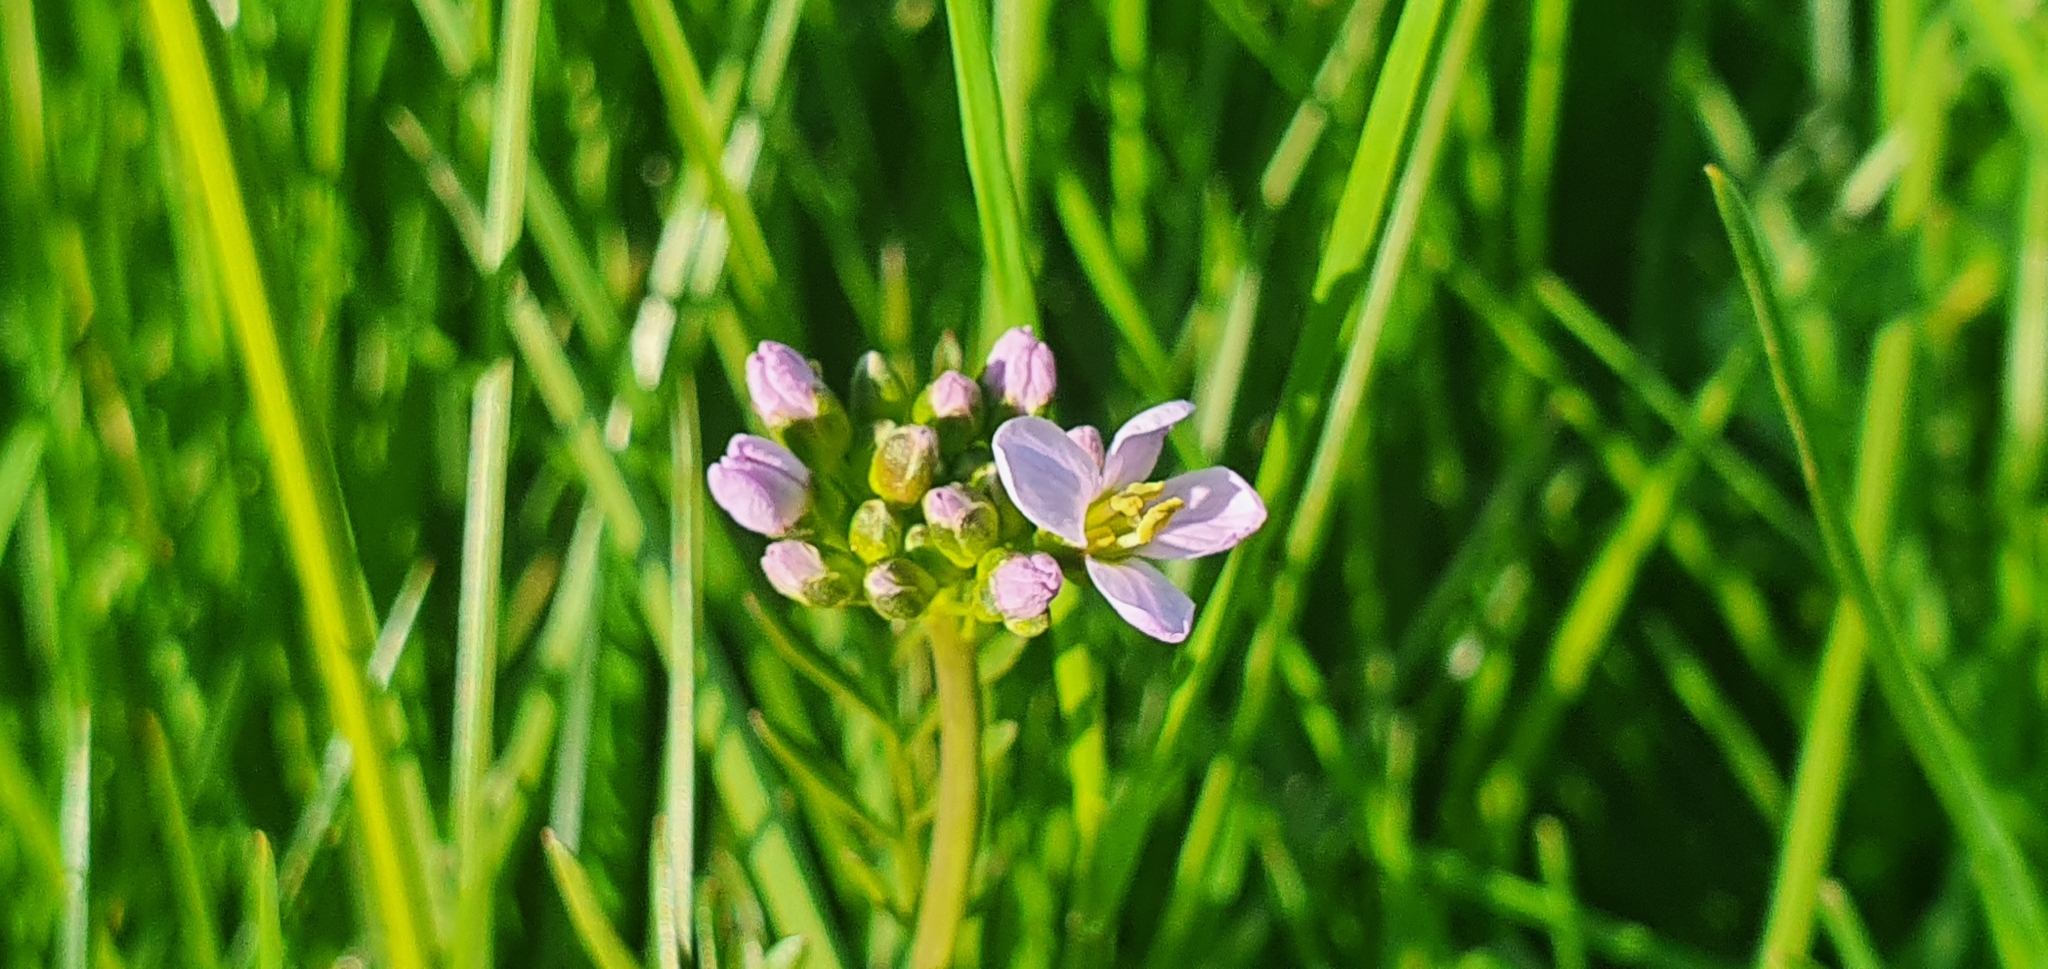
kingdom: Plantae
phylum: Tracheophyta
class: Magnoliopsida
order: Brassicales
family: Brassicaceae
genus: Cardamine
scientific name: Cardamine pratensis
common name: Cuckoo flower
